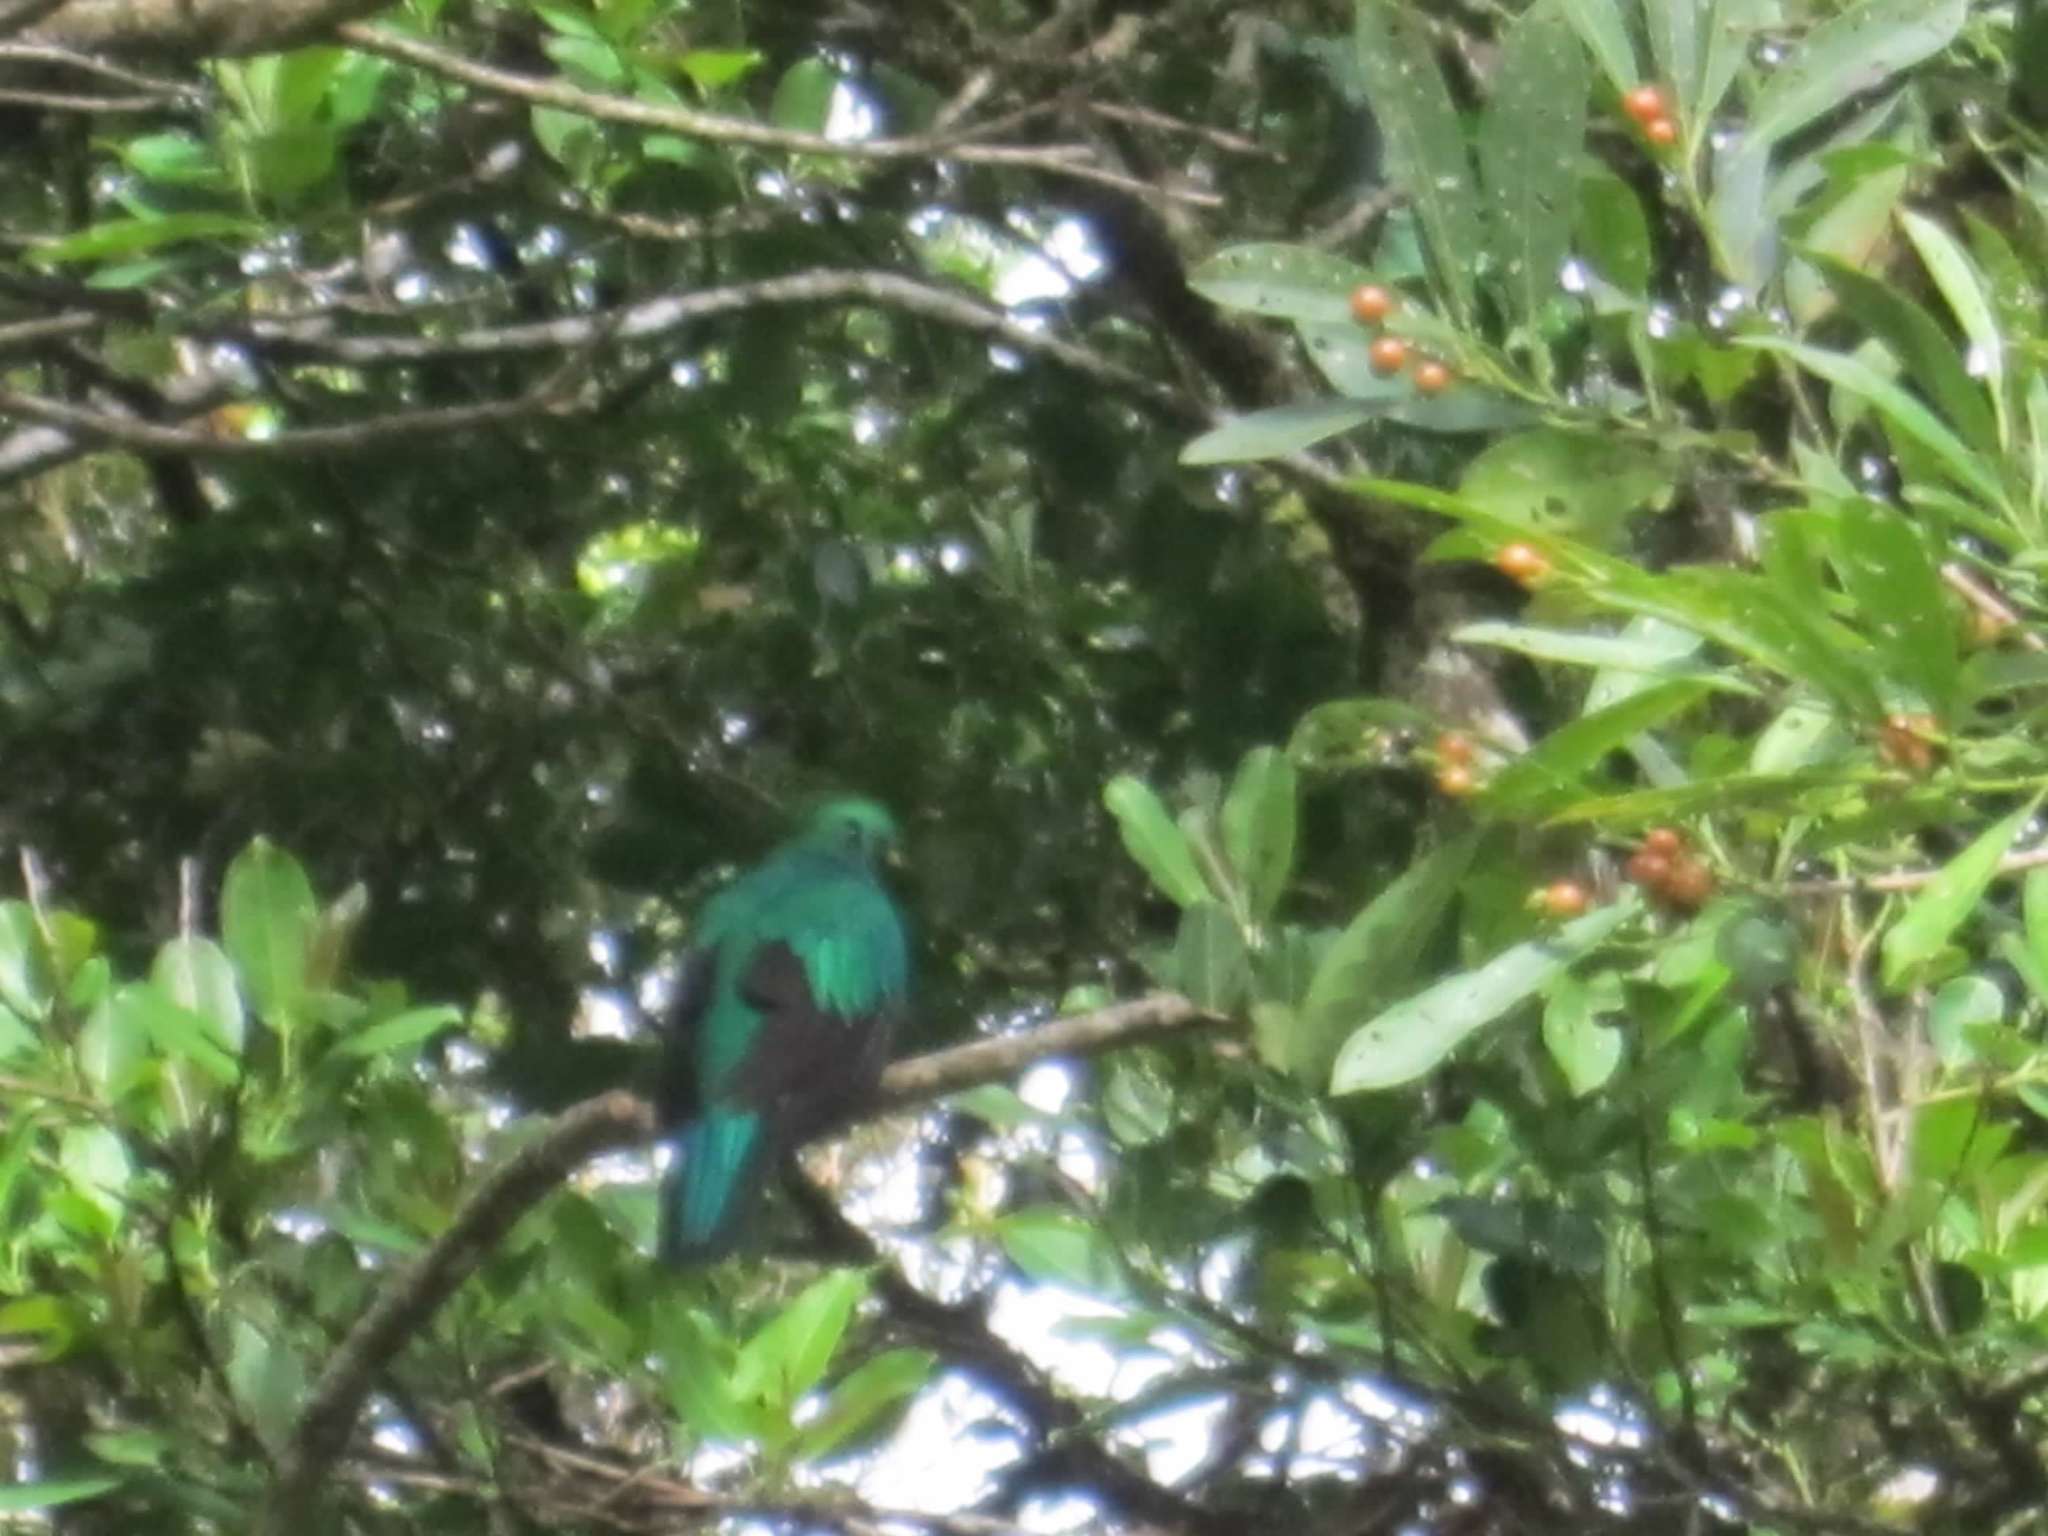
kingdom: Animalia
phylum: Chordata
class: Aves
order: Trogoniformes
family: Trogonidae
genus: Pharomachrus
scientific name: Pharomachrus mocinno
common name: Resplendent quetzal
